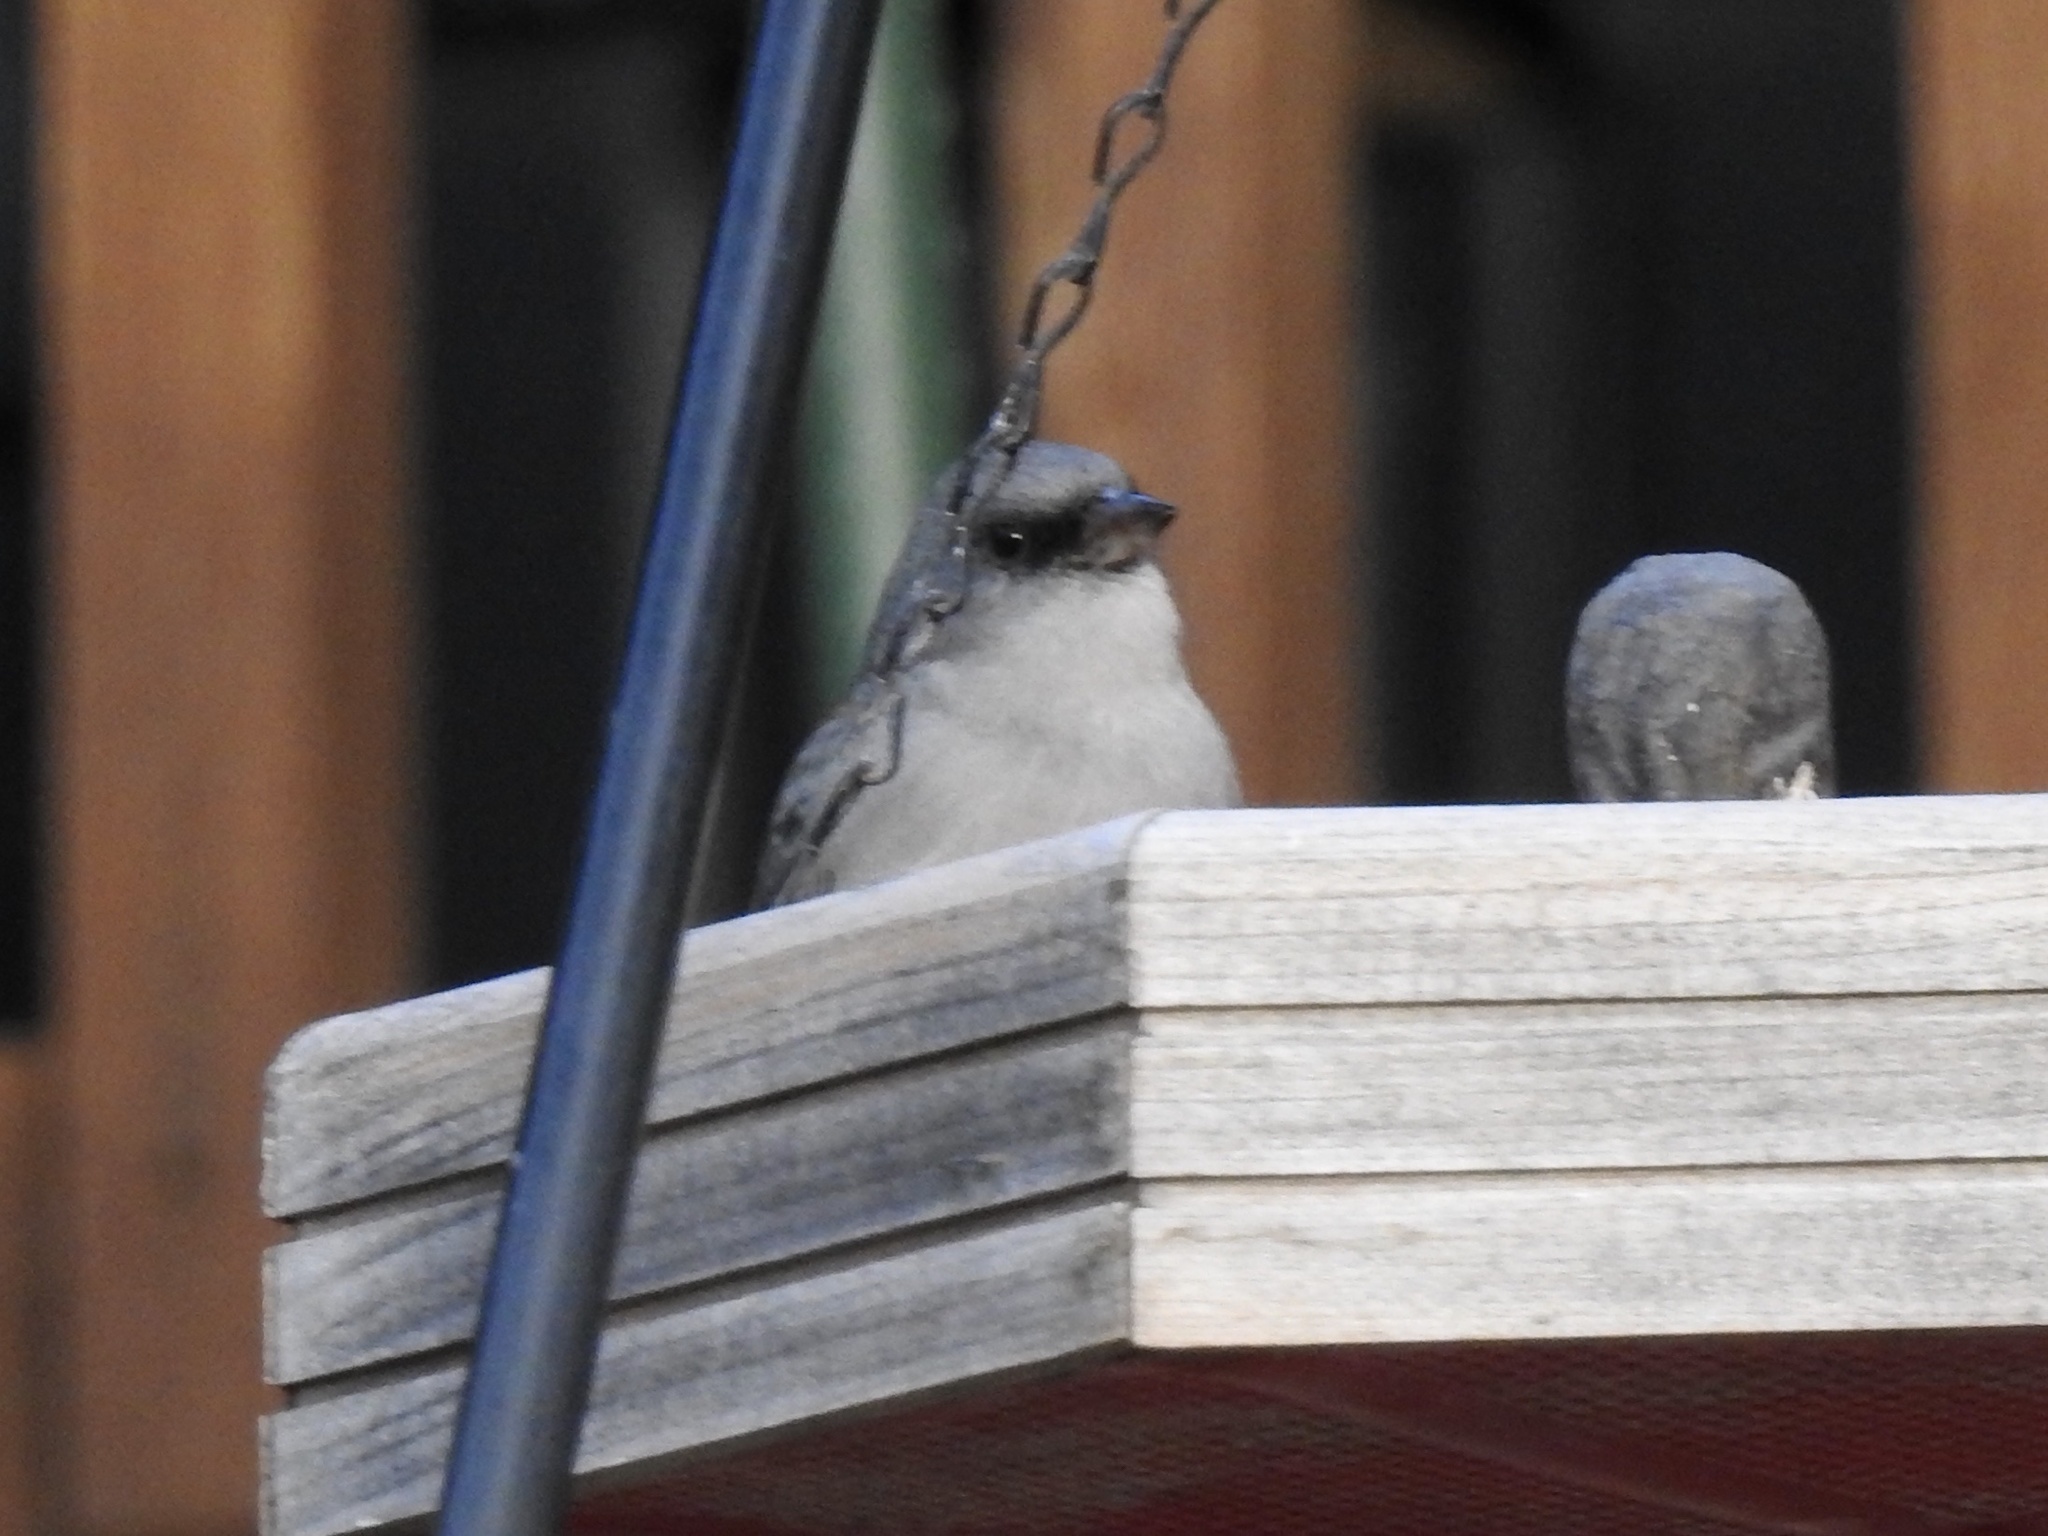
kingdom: Animalia
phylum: Chordata
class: Aves
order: Passeriformes
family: Passerellidae
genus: Junco
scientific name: Junco hyemalis
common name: Dark-eyed junco
